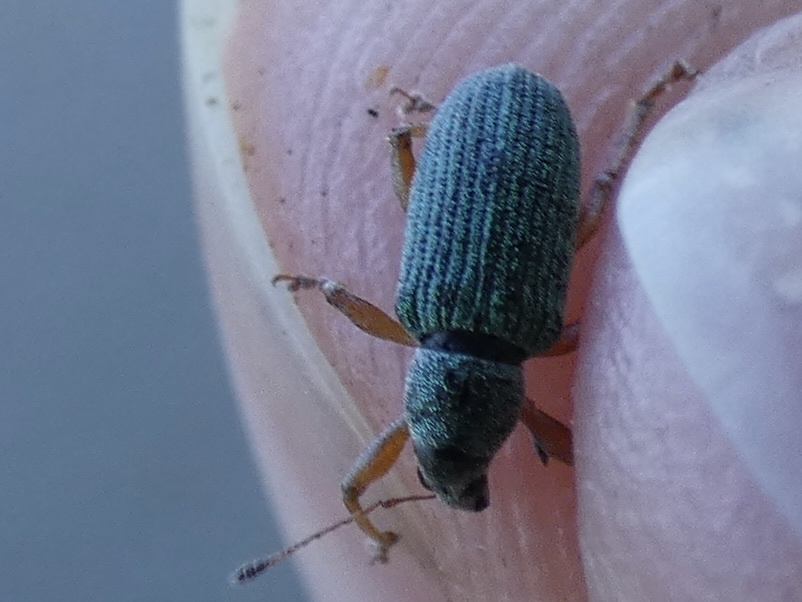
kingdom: Animalia
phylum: Arthropoda
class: Insecta
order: Coleoptera
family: Curculionidae
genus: Polydrusus
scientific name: Polydrusus formosus
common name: Weevil
